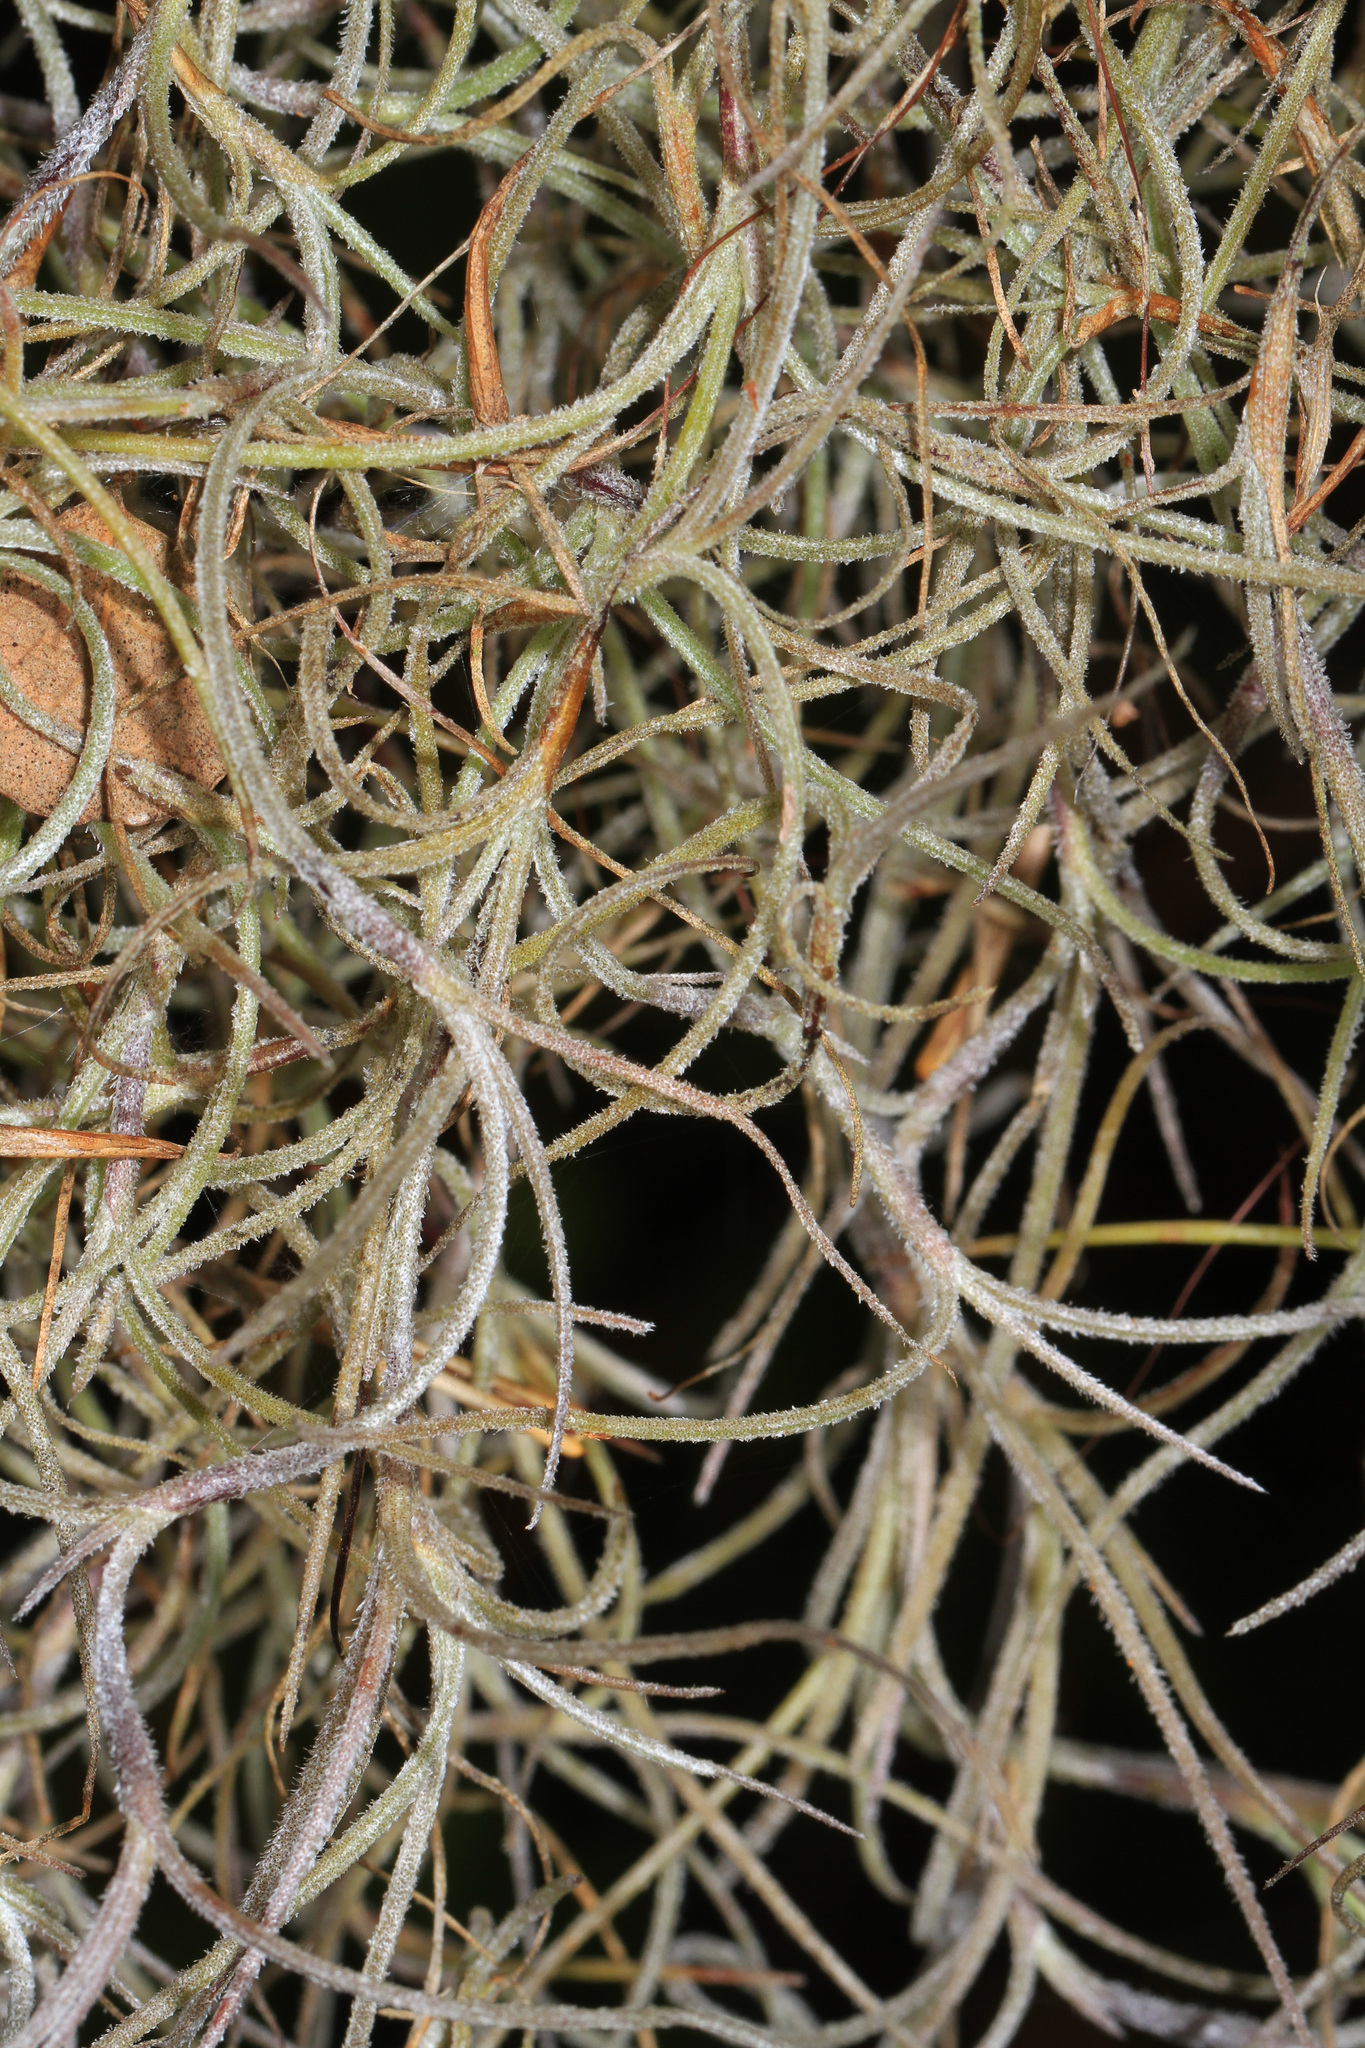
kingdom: Plantae
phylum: Tracheophyta
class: Liliopsida
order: Poales
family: Bromeliaceae
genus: Tillandsia
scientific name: Tillandsia usneoides
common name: Spanish moss
